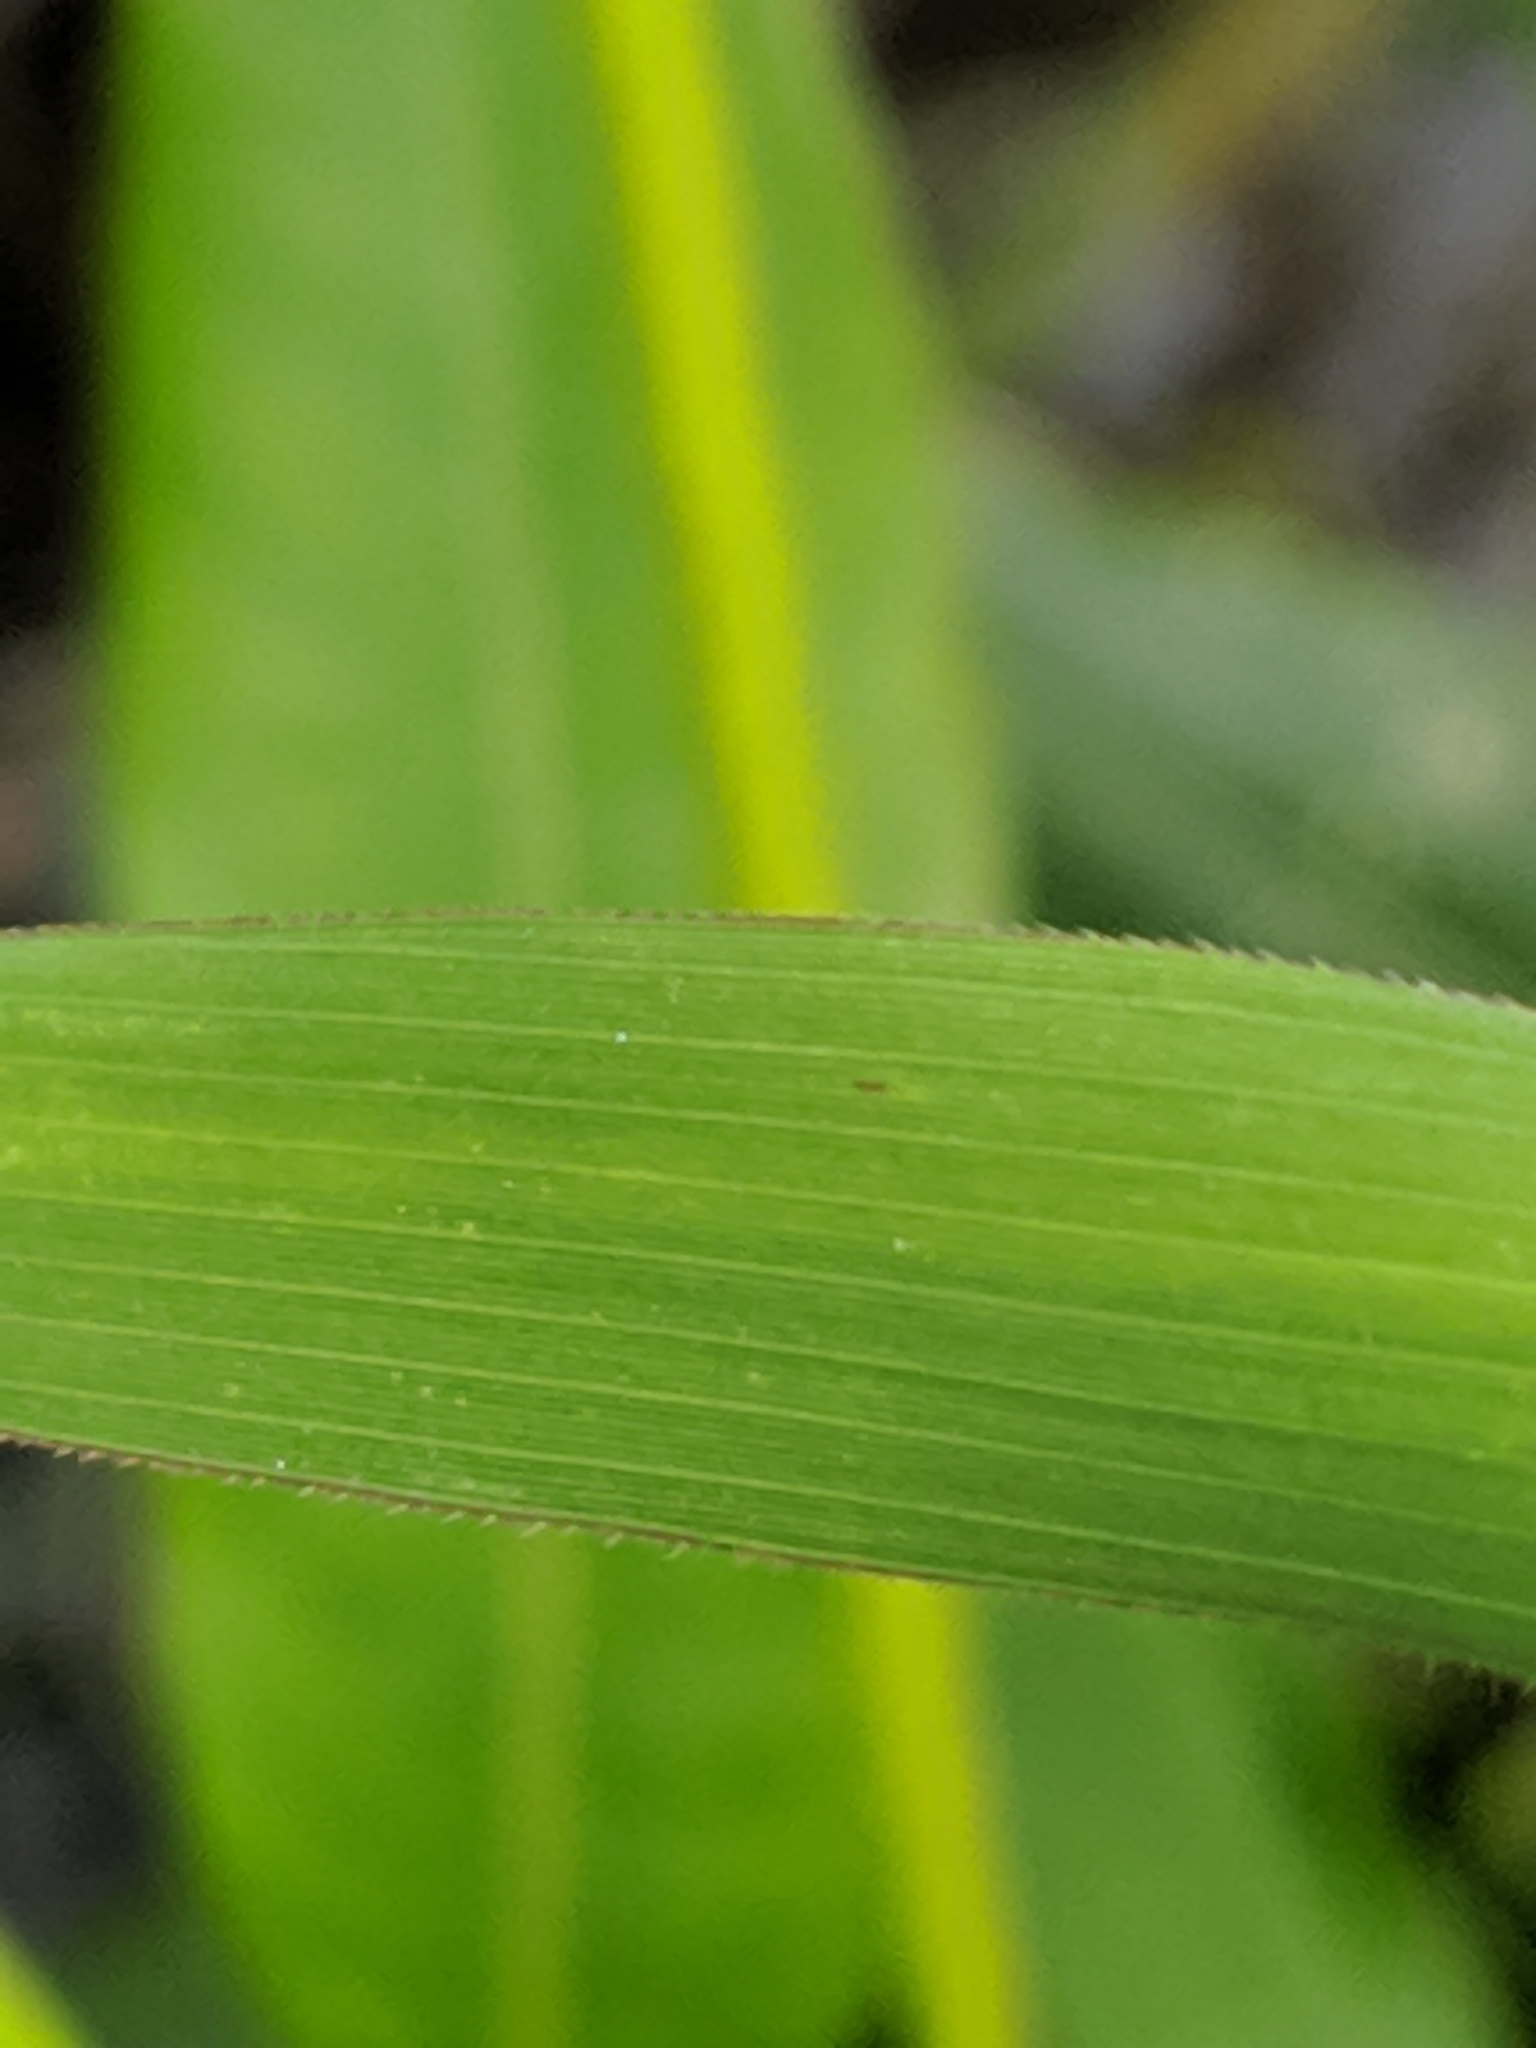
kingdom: Plantae
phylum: Tracheophyta
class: Liliopsida
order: Poales
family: Poaceae
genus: Leersia
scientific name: Leersia oryzoides
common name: Cut-grass
